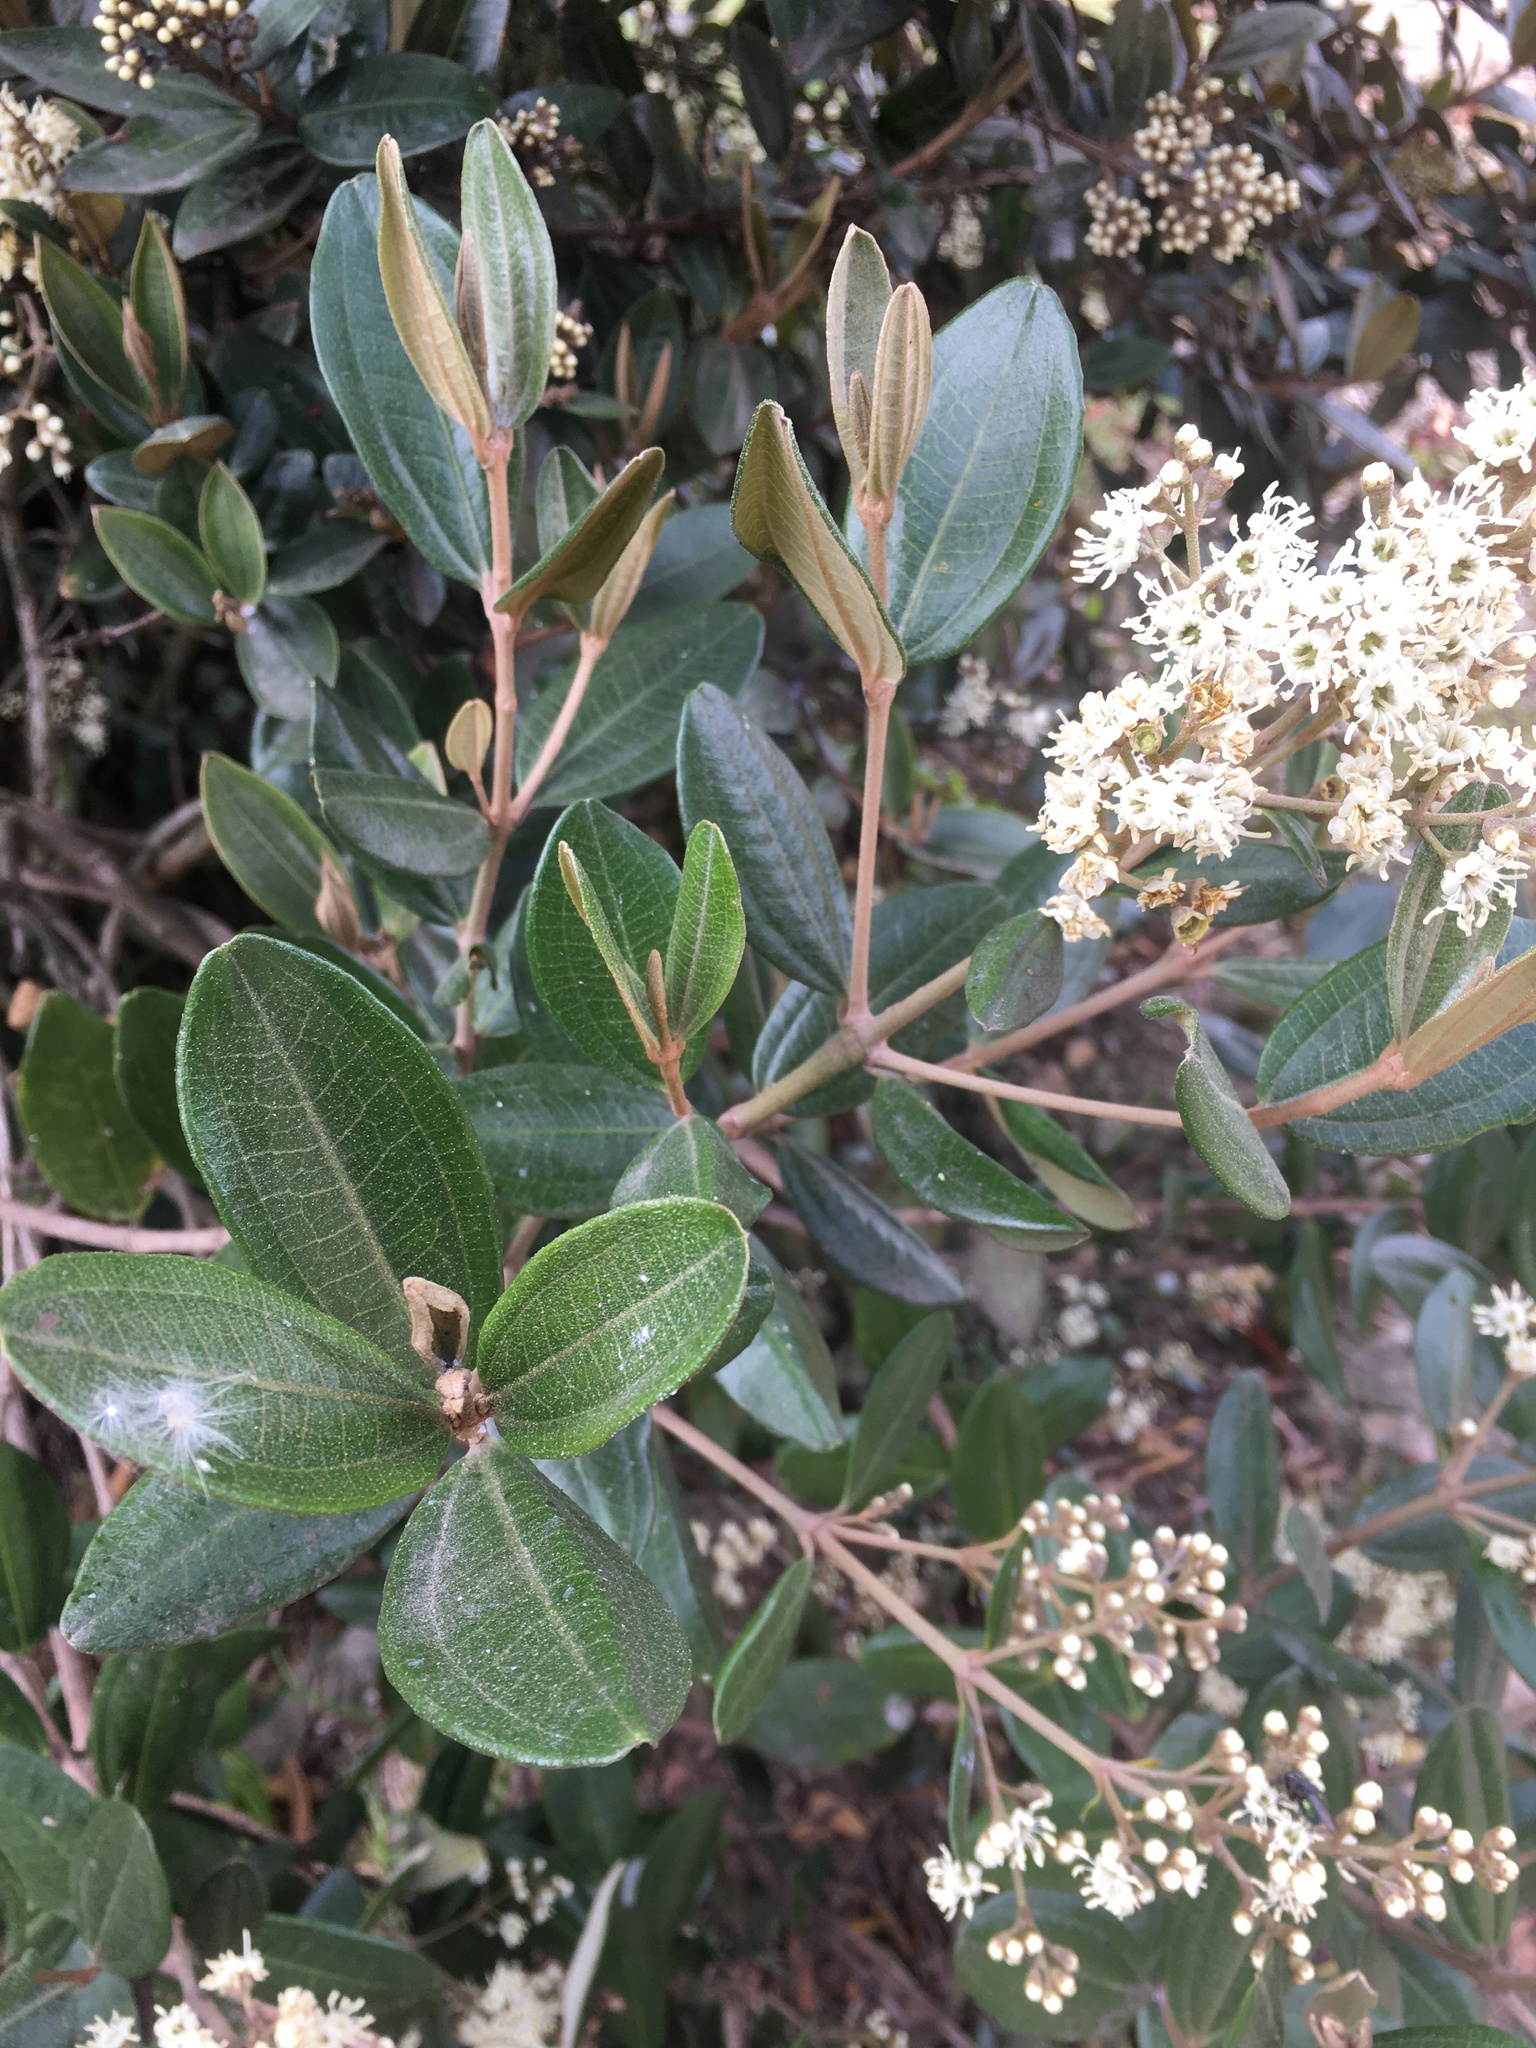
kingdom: Plantae
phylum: Tracheophyta
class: Magnoliopsida
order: Myrtales
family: Melastomataceae
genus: Miconia
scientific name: Miconia squamulosa
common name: Squamulose maya
